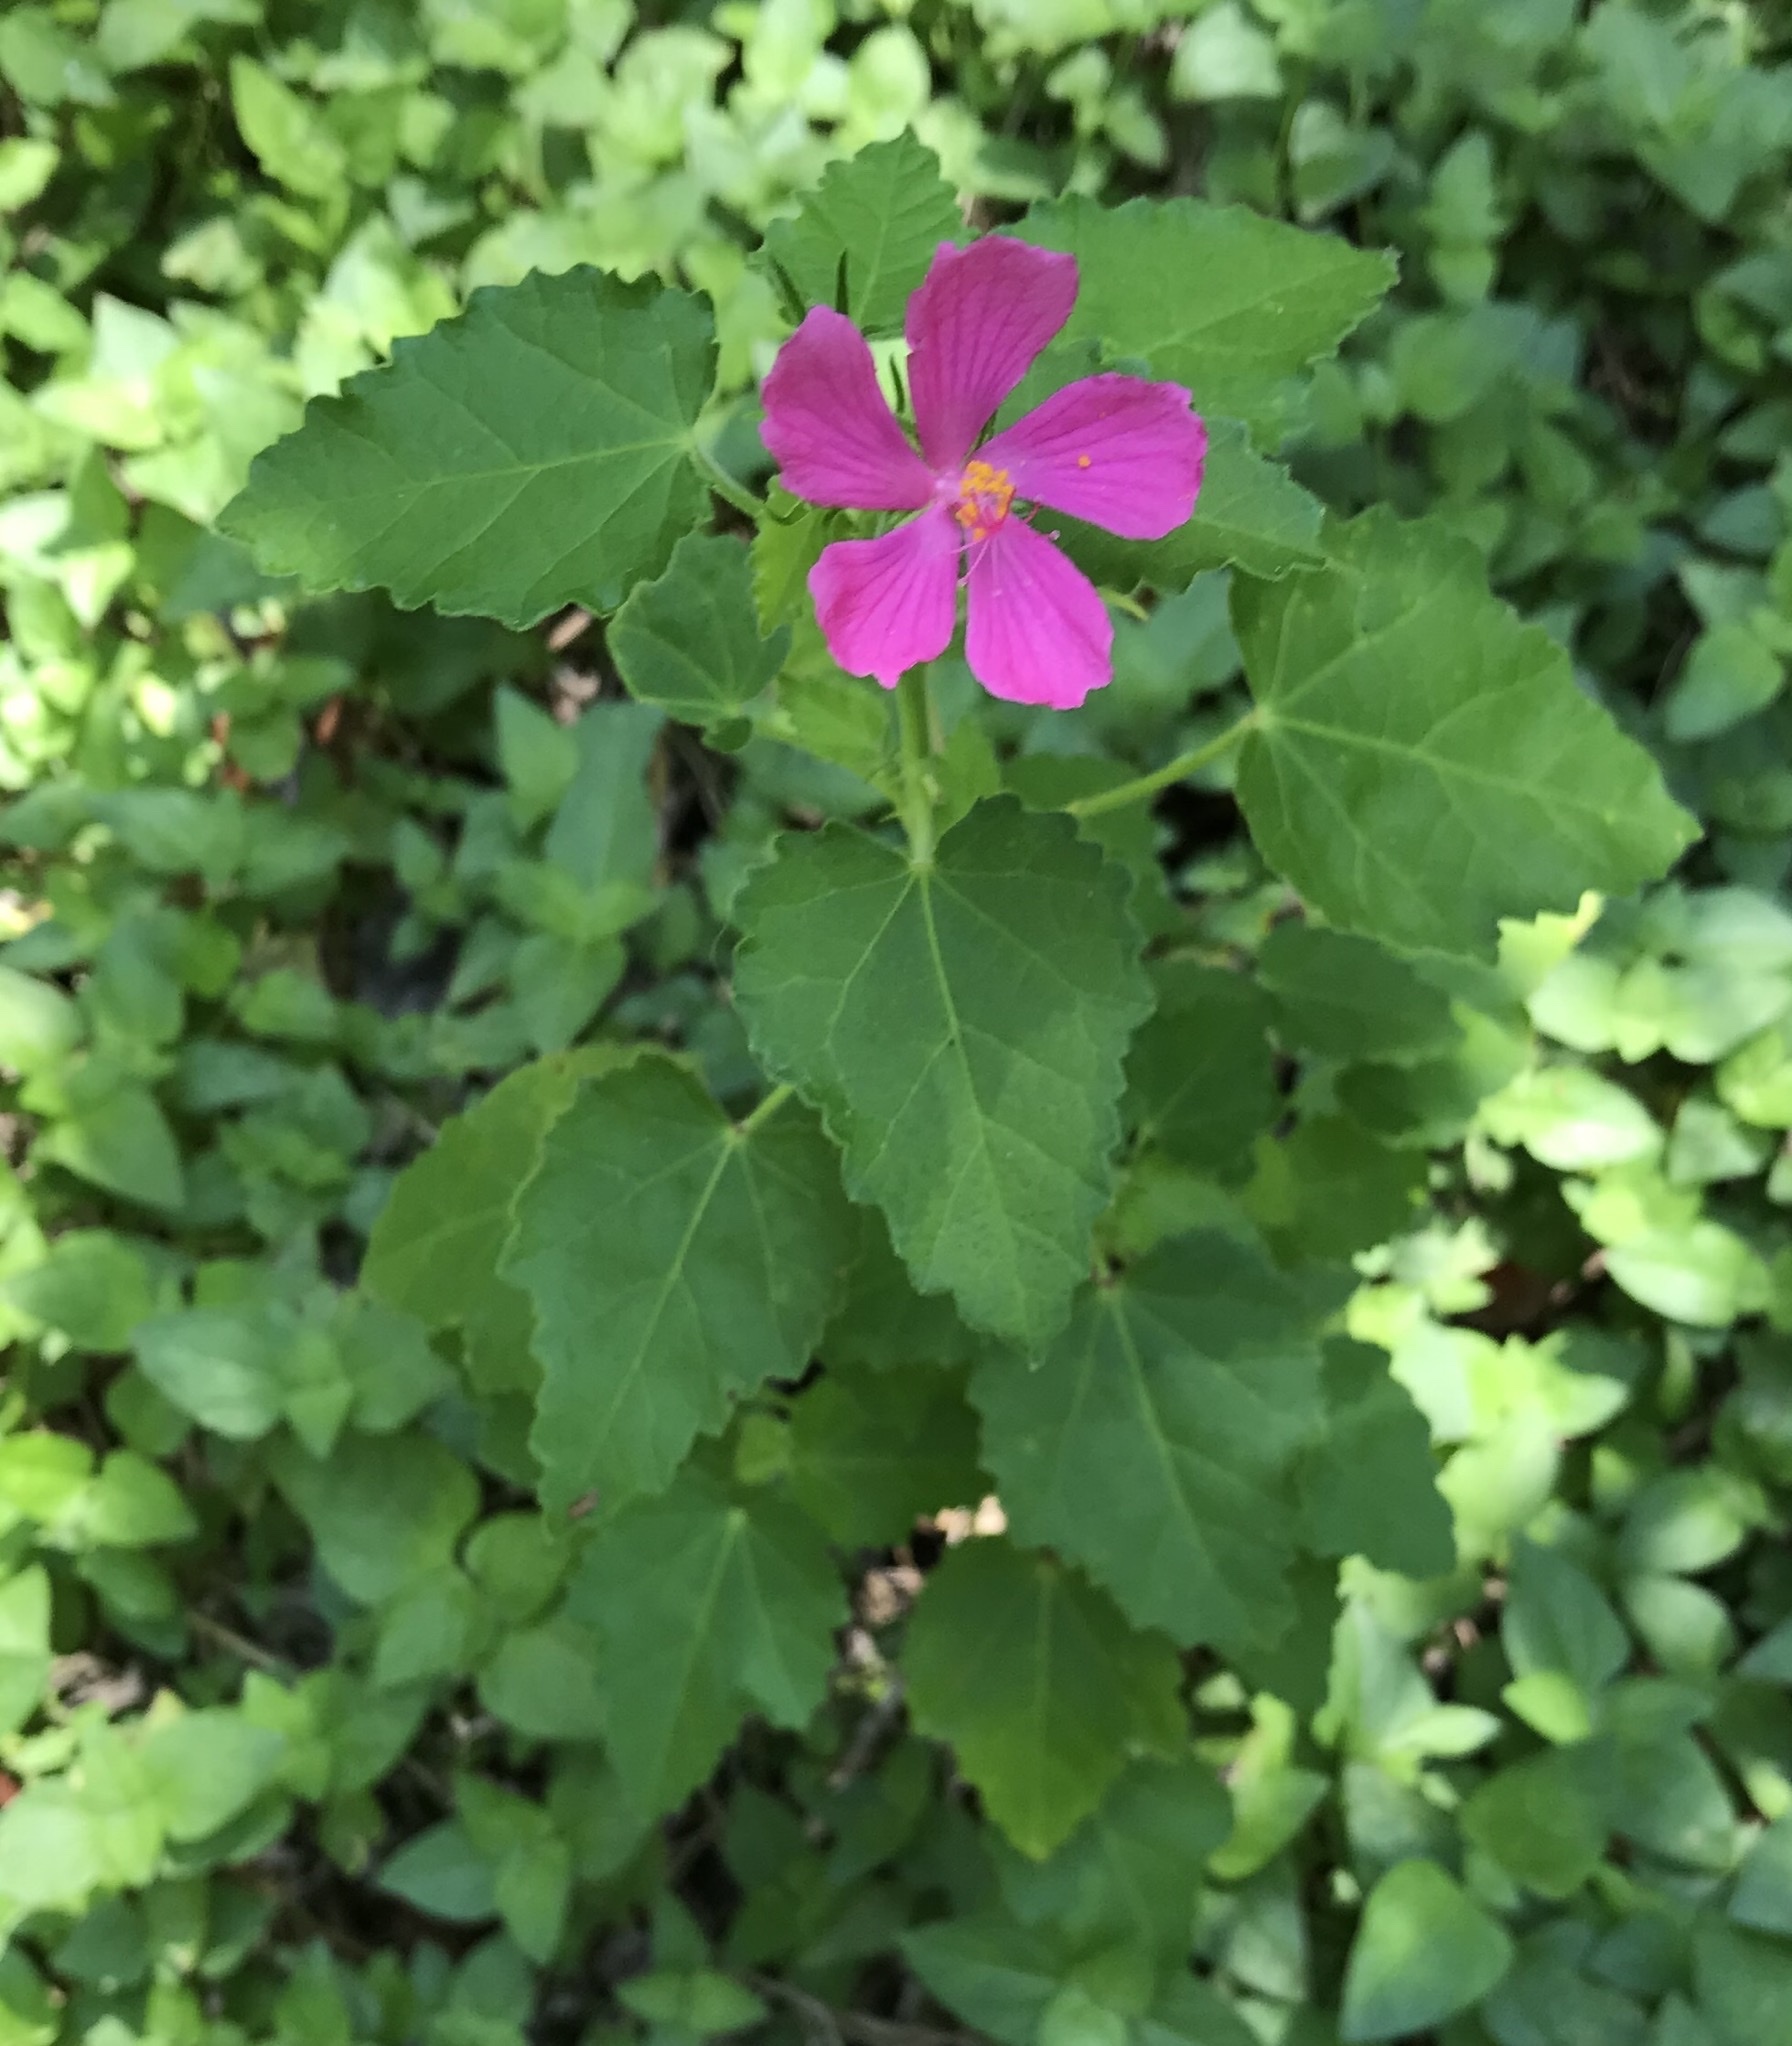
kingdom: Plantae
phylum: Tracheophyta
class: Magnoliopsida
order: Malvales
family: Malvaceae
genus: Pavonia
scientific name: Pavonia lasiopetala
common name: Texas swamp-mallow
